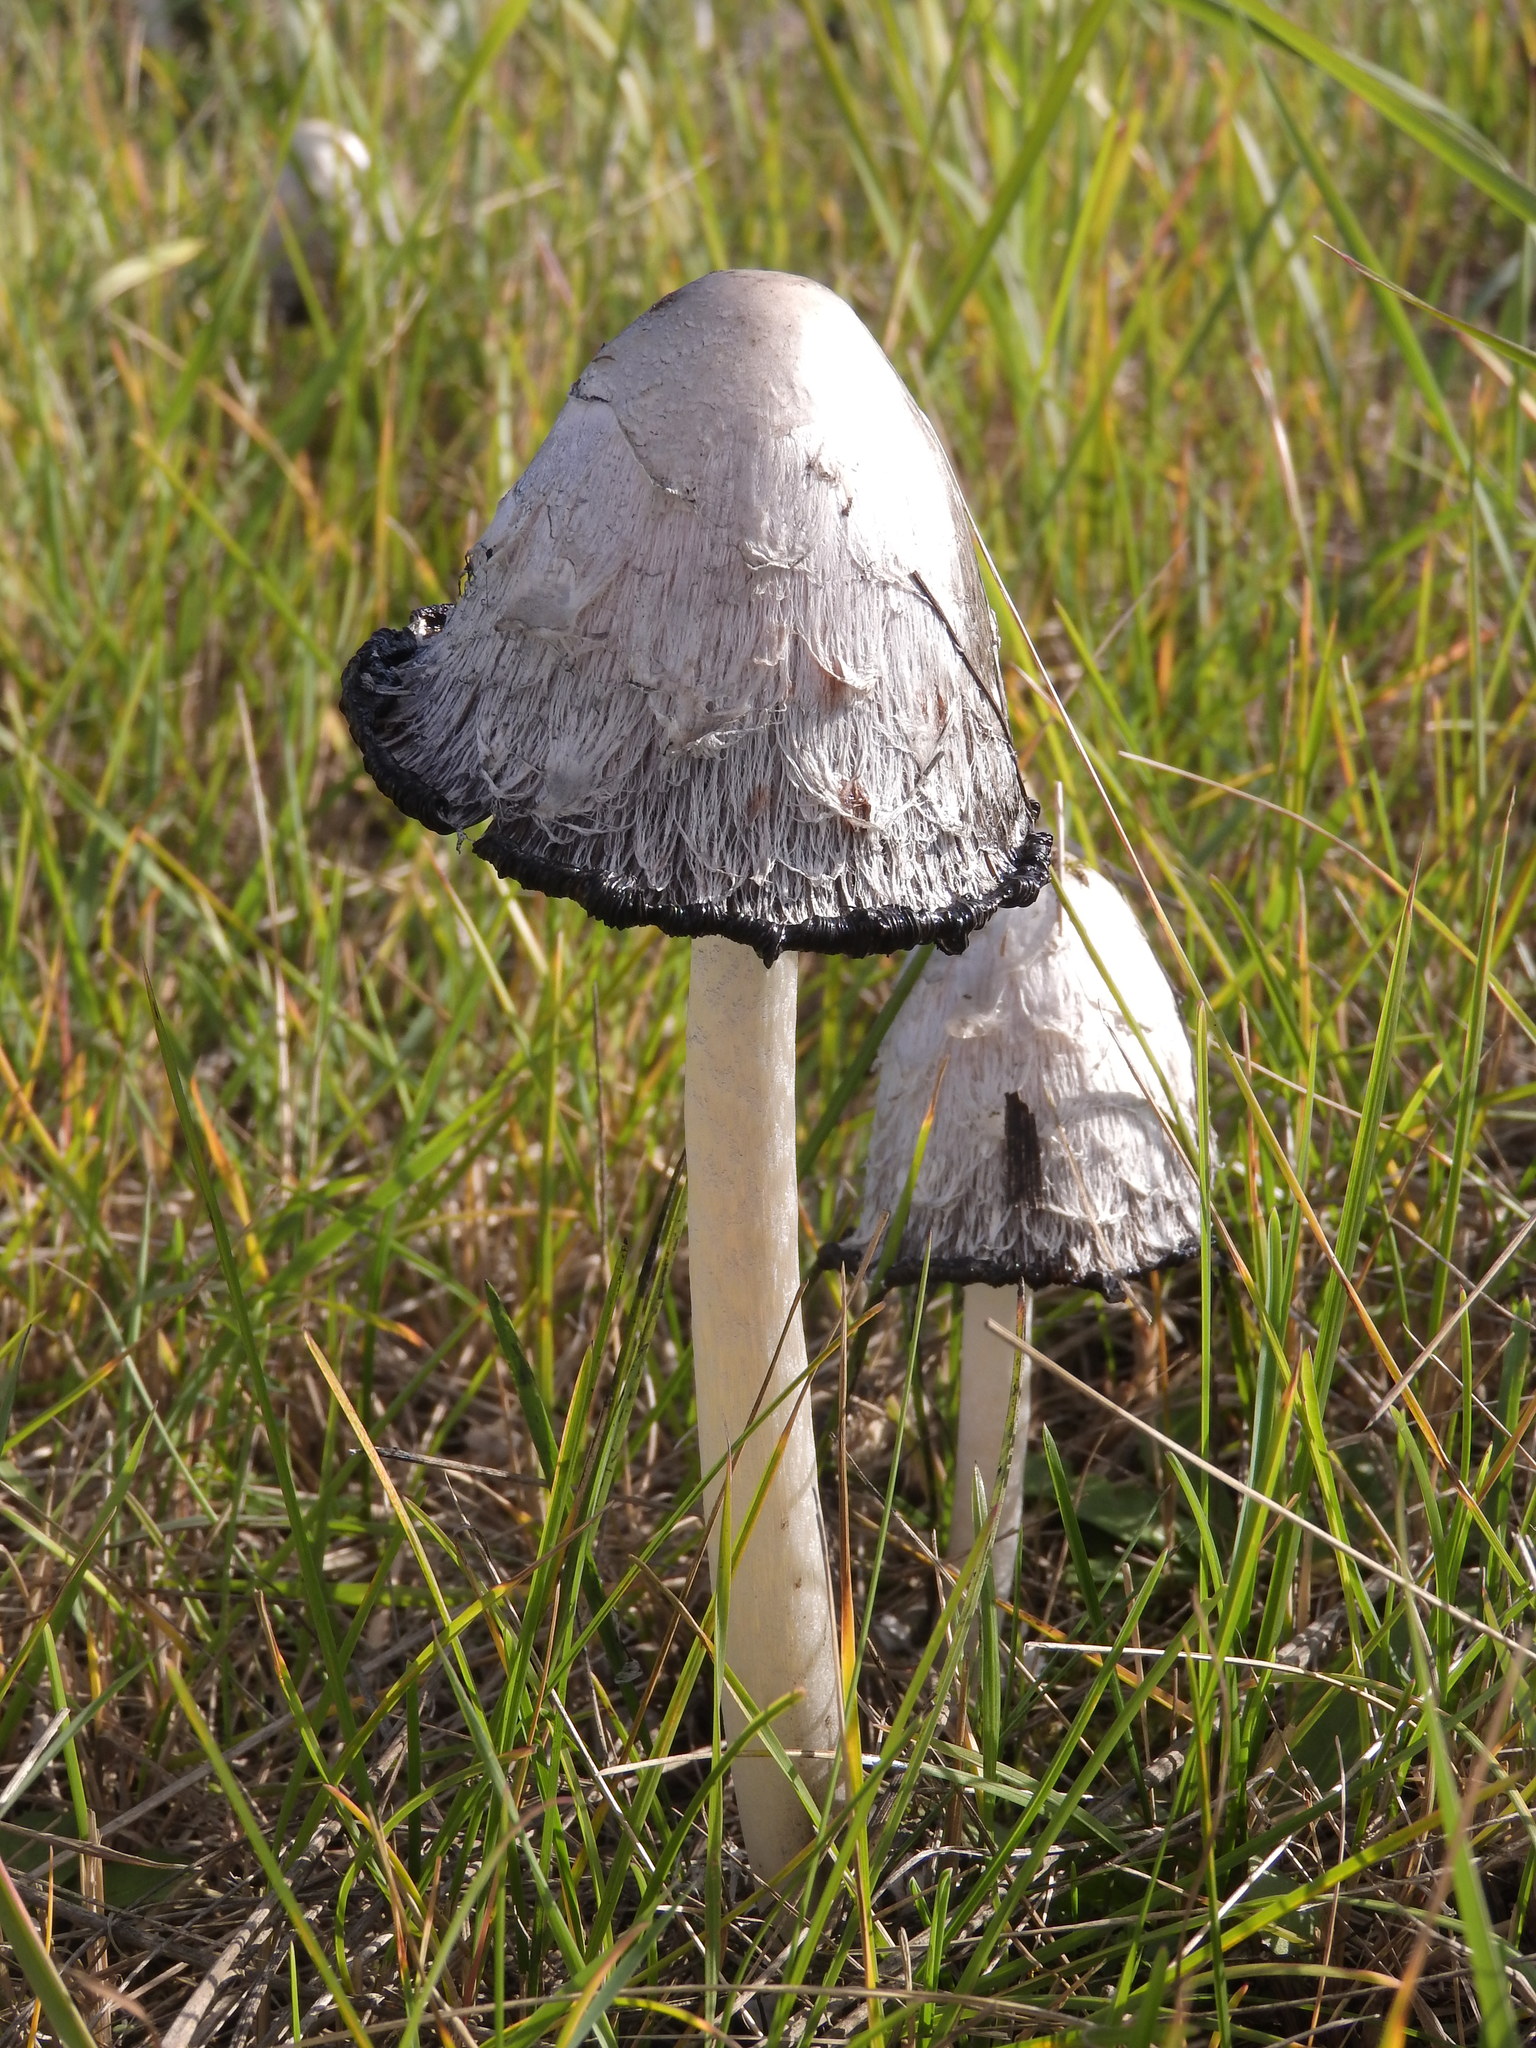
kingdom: Fungi
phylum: Basidiomycota
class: Agaricomycetes
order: Agaricales
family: Agaricaceae
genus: Coprinus
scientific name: Coprinus comatus
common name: Lawyer's wig
